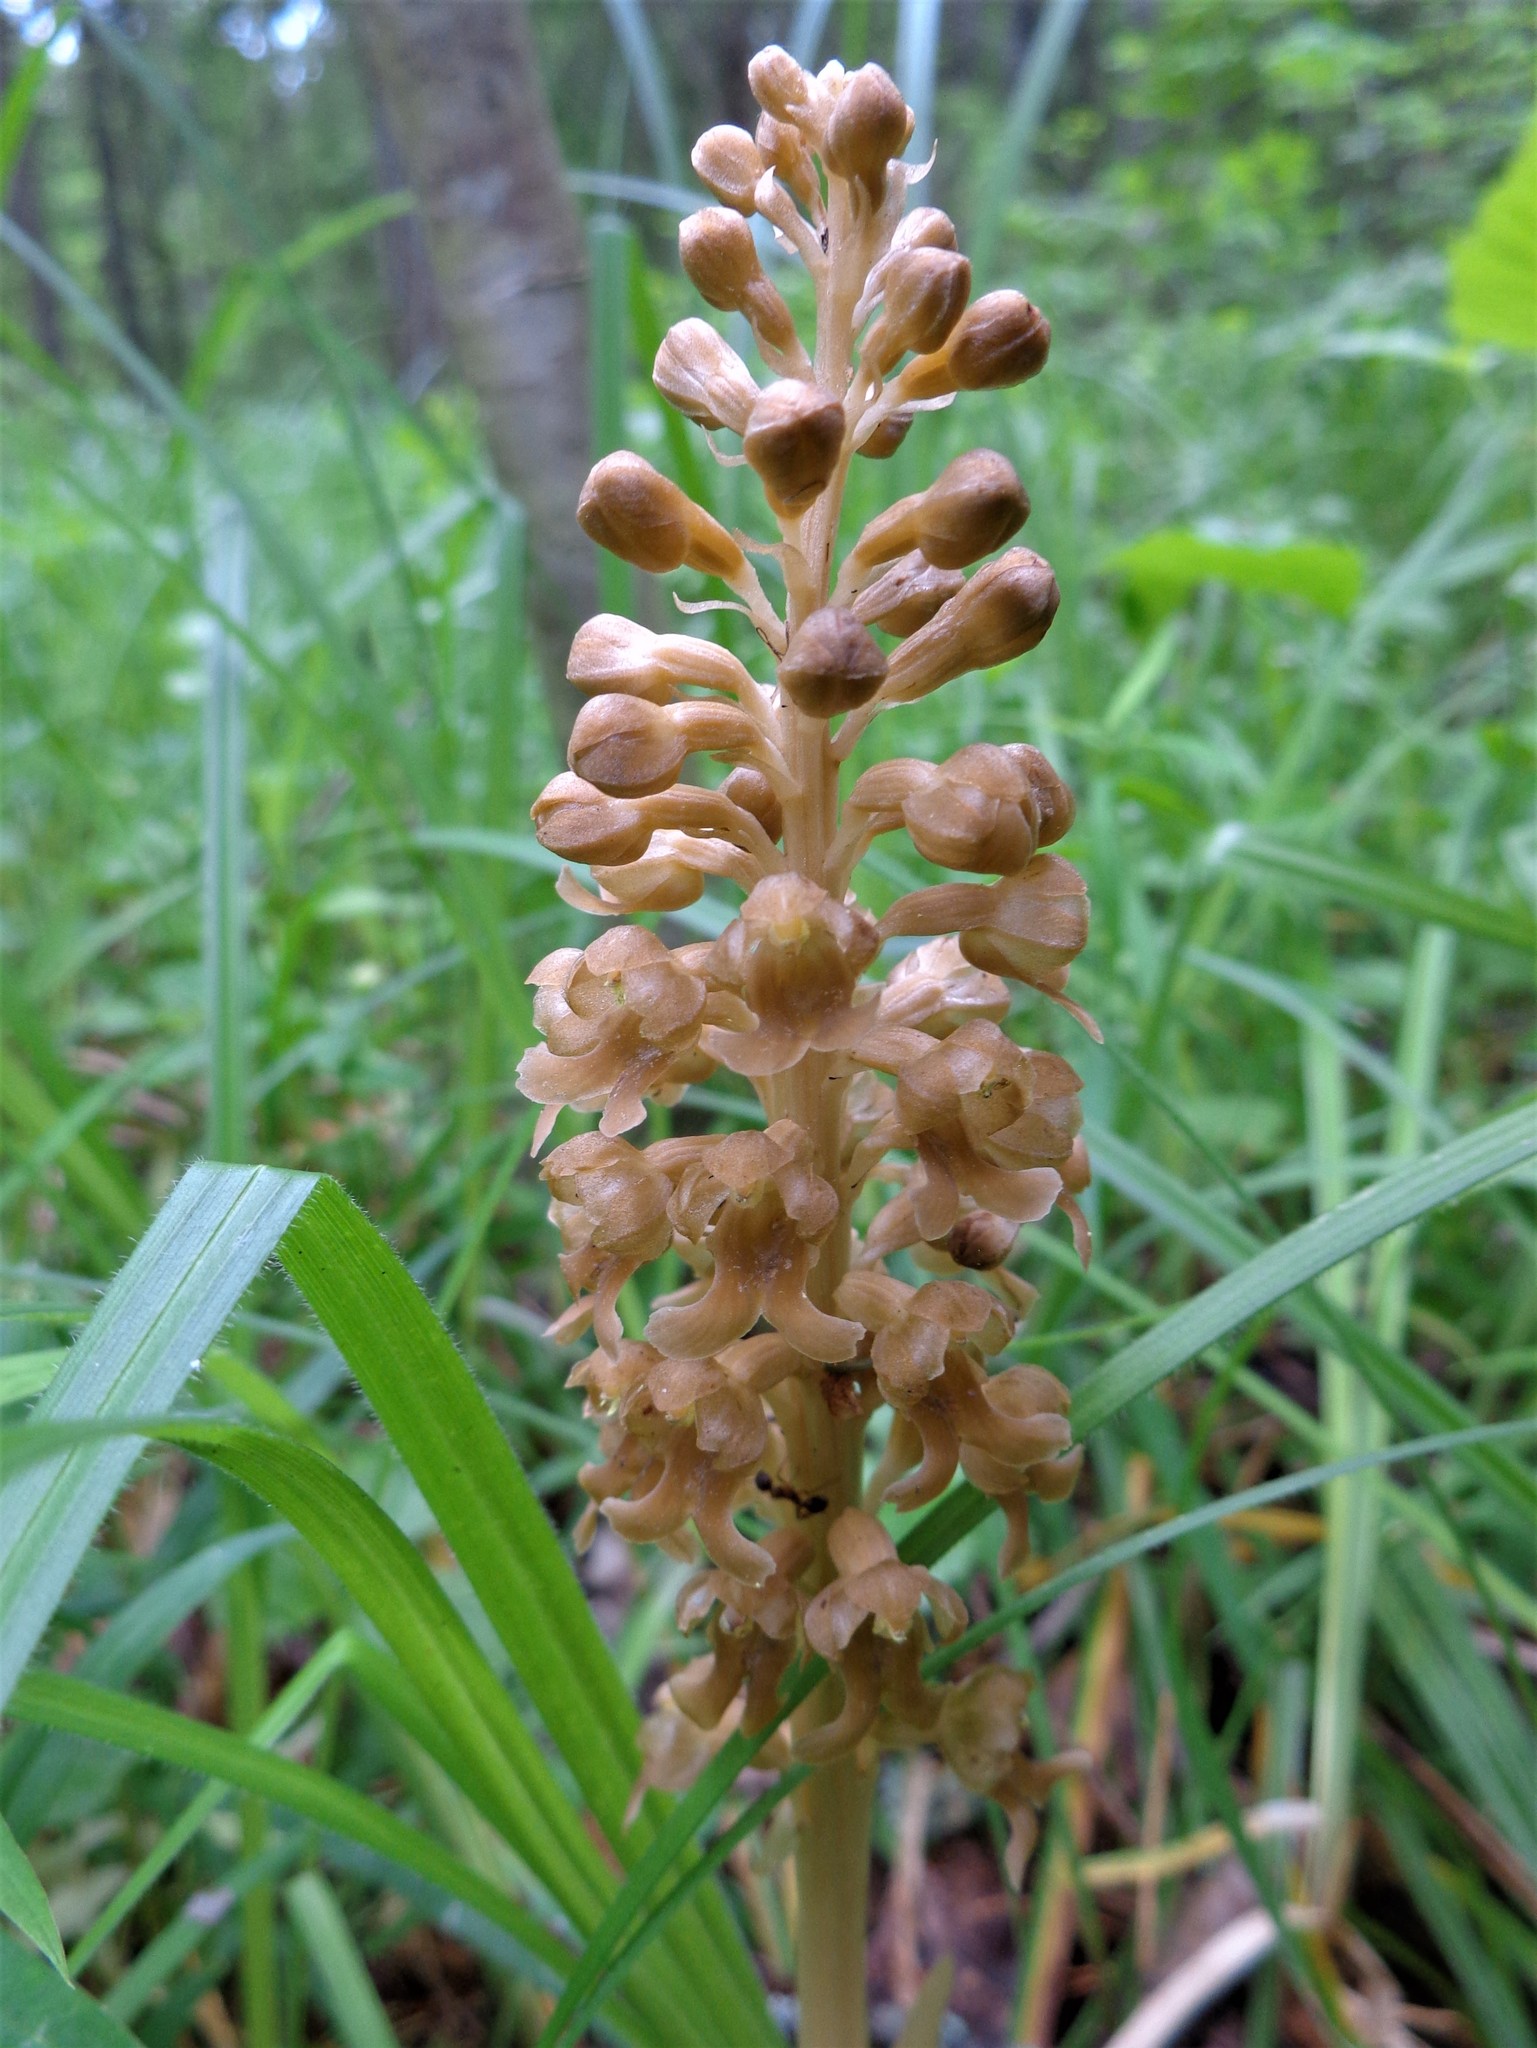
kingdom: Plantae
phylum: Tracheophyta
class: Liliopsida
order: Asparagales
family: Orchidaceae
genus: Neottia
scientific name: Neottia nidus-avis
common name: Bird's-nest orchid
